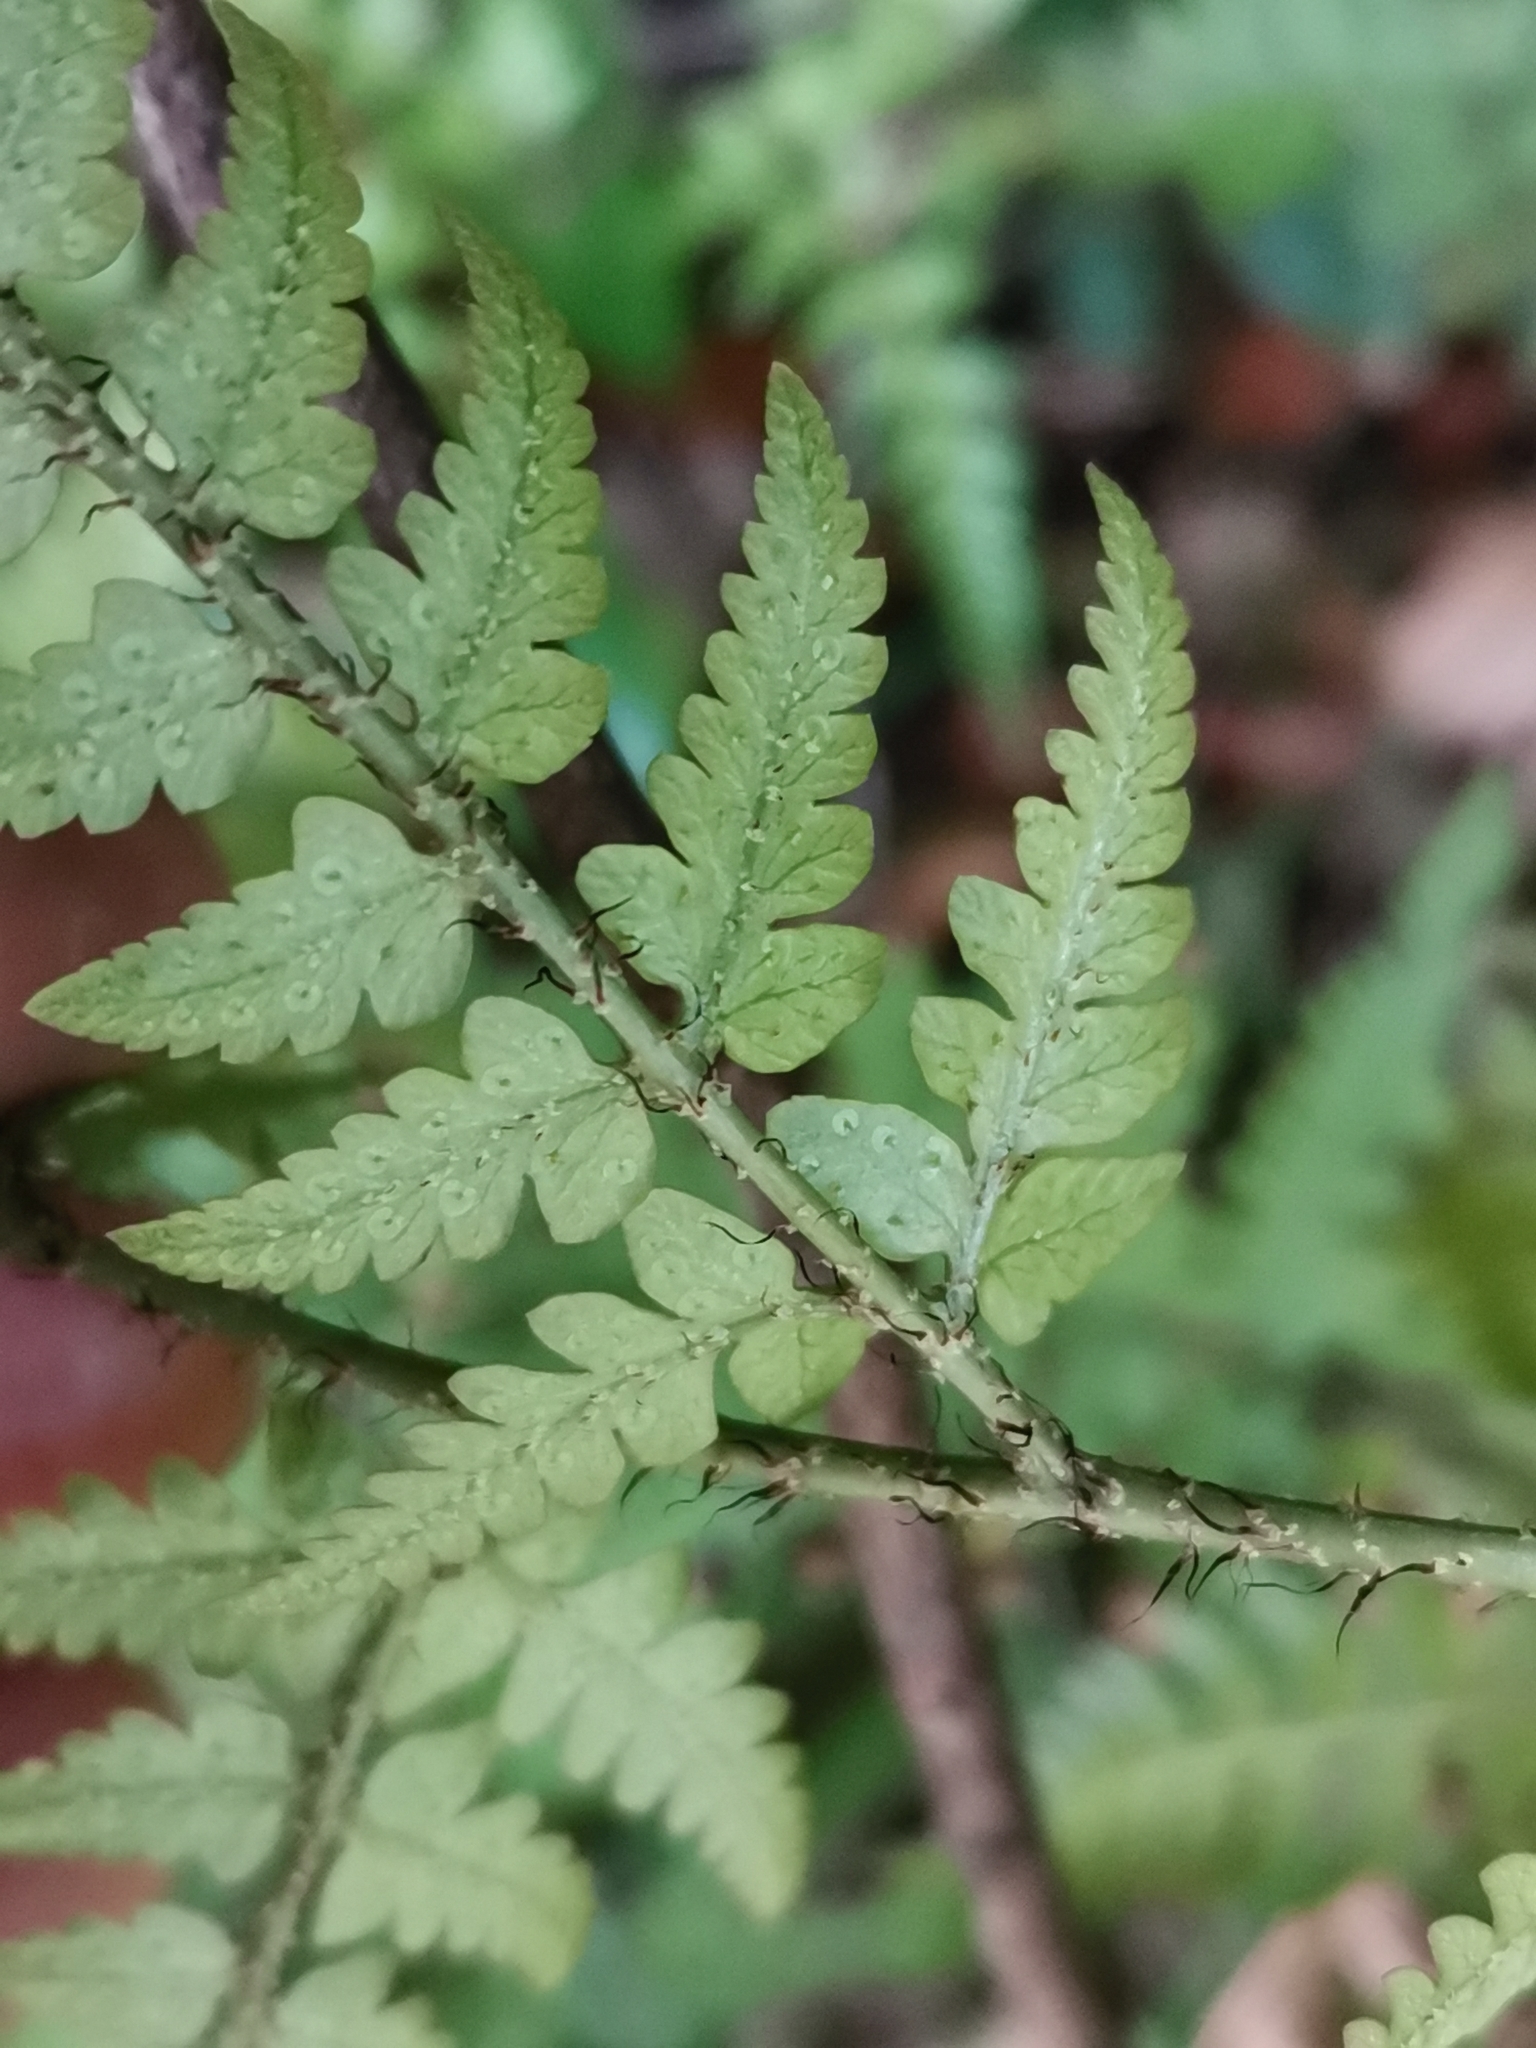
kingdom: Plantae
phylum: Tracheophyta
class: Polypodiopsida
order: Polypodiales
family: Dryopteridaceae
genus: Dryopteris
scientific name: Dryopteris sacrosancta
